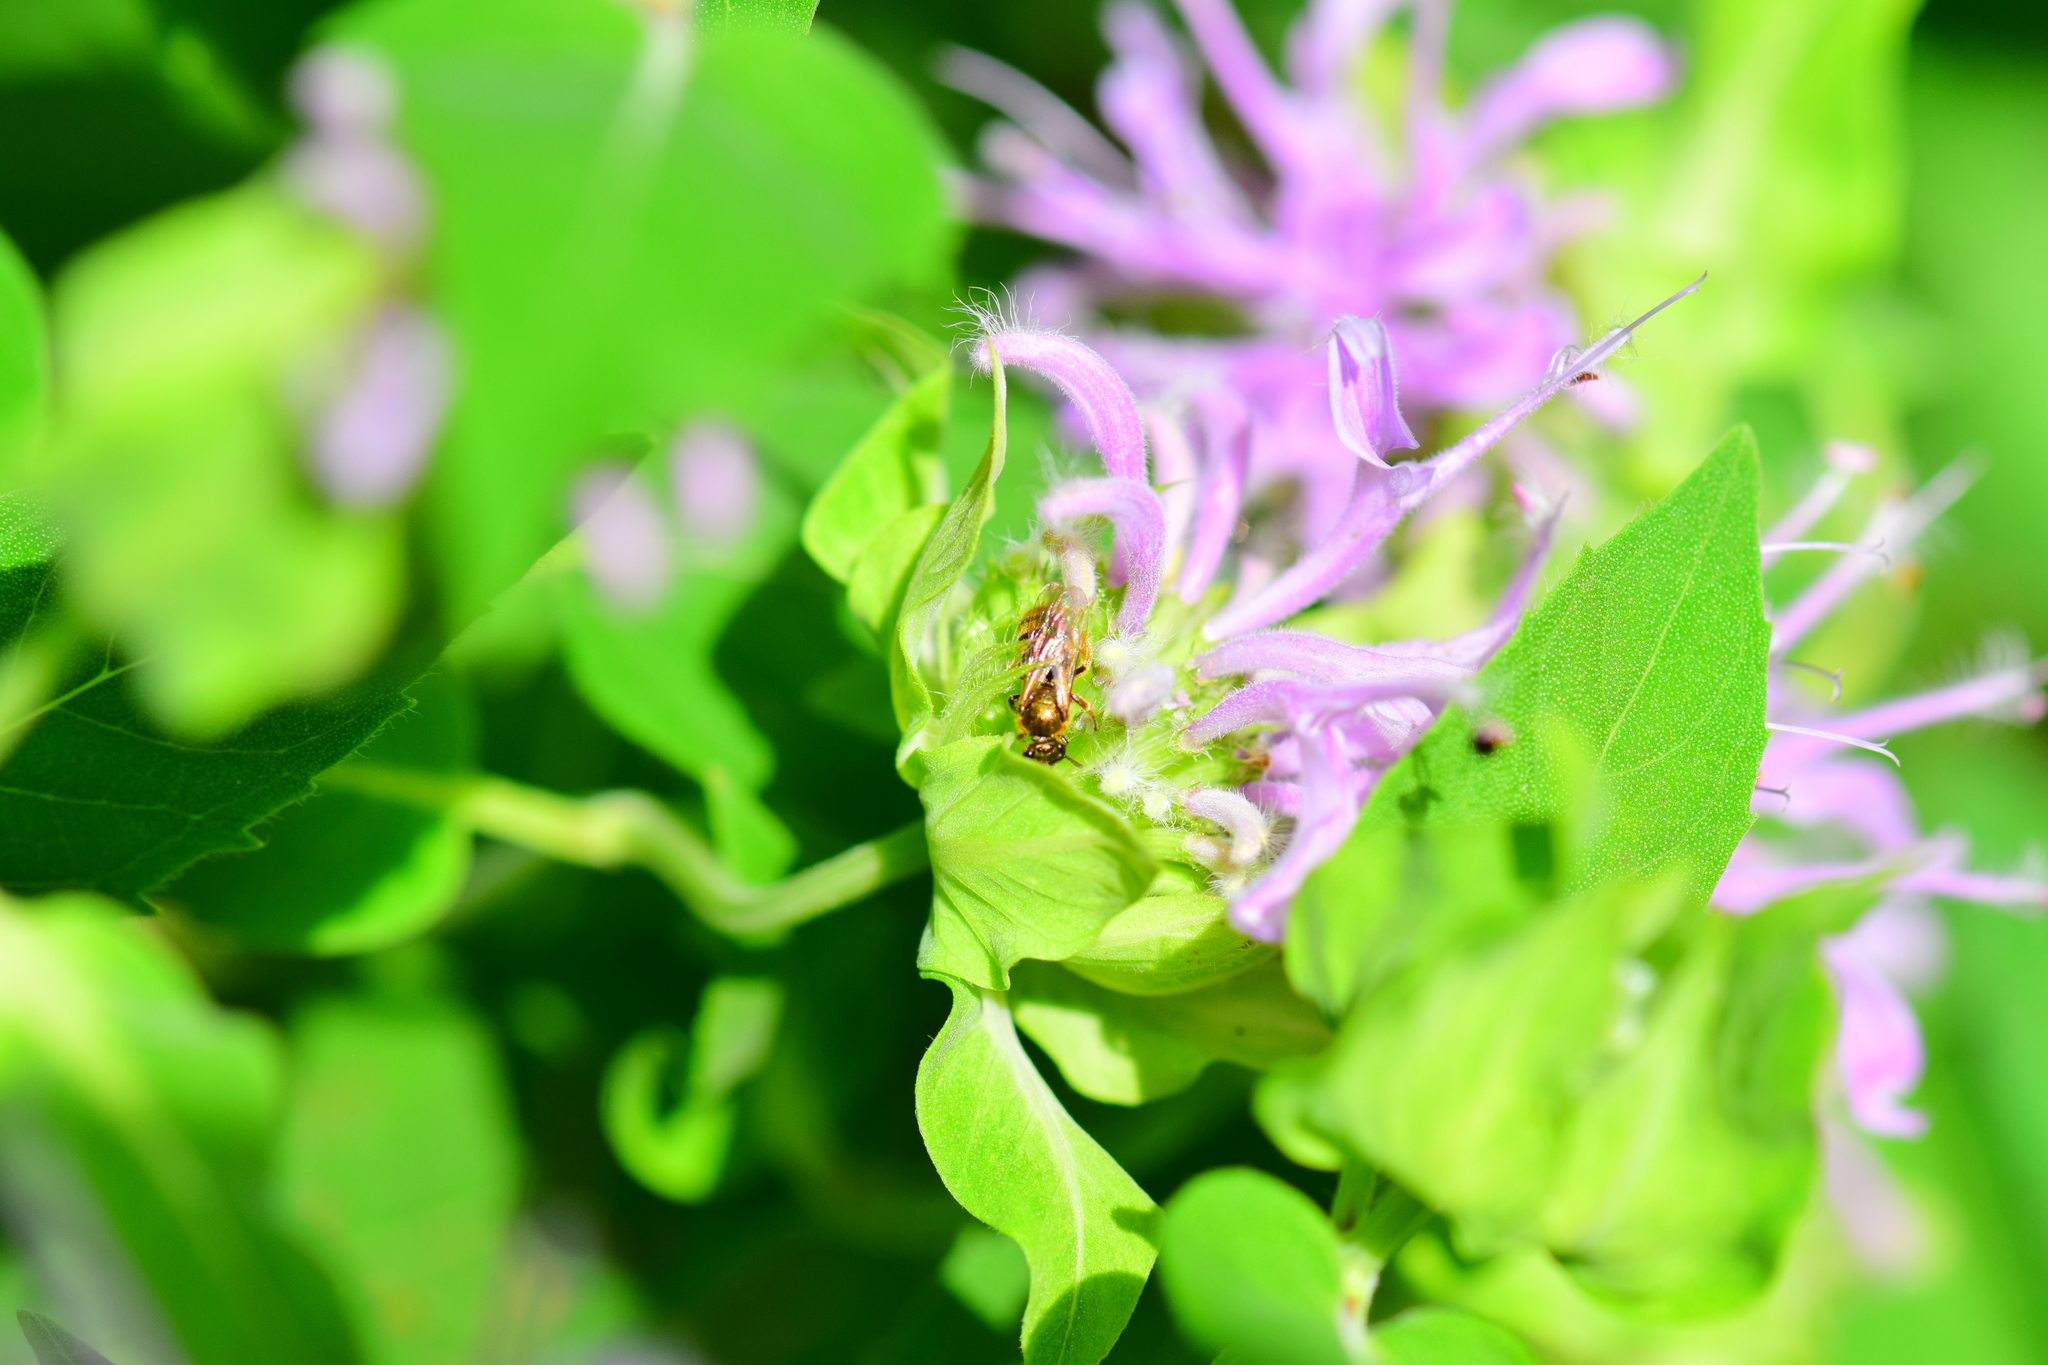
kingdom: Animalia
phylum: Arthropoda
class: Insecta
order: Hymenoptera
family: Halictidae
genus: Lasioglossum
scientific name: Lasioglossum cressonii
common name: Cresson's dialictus
